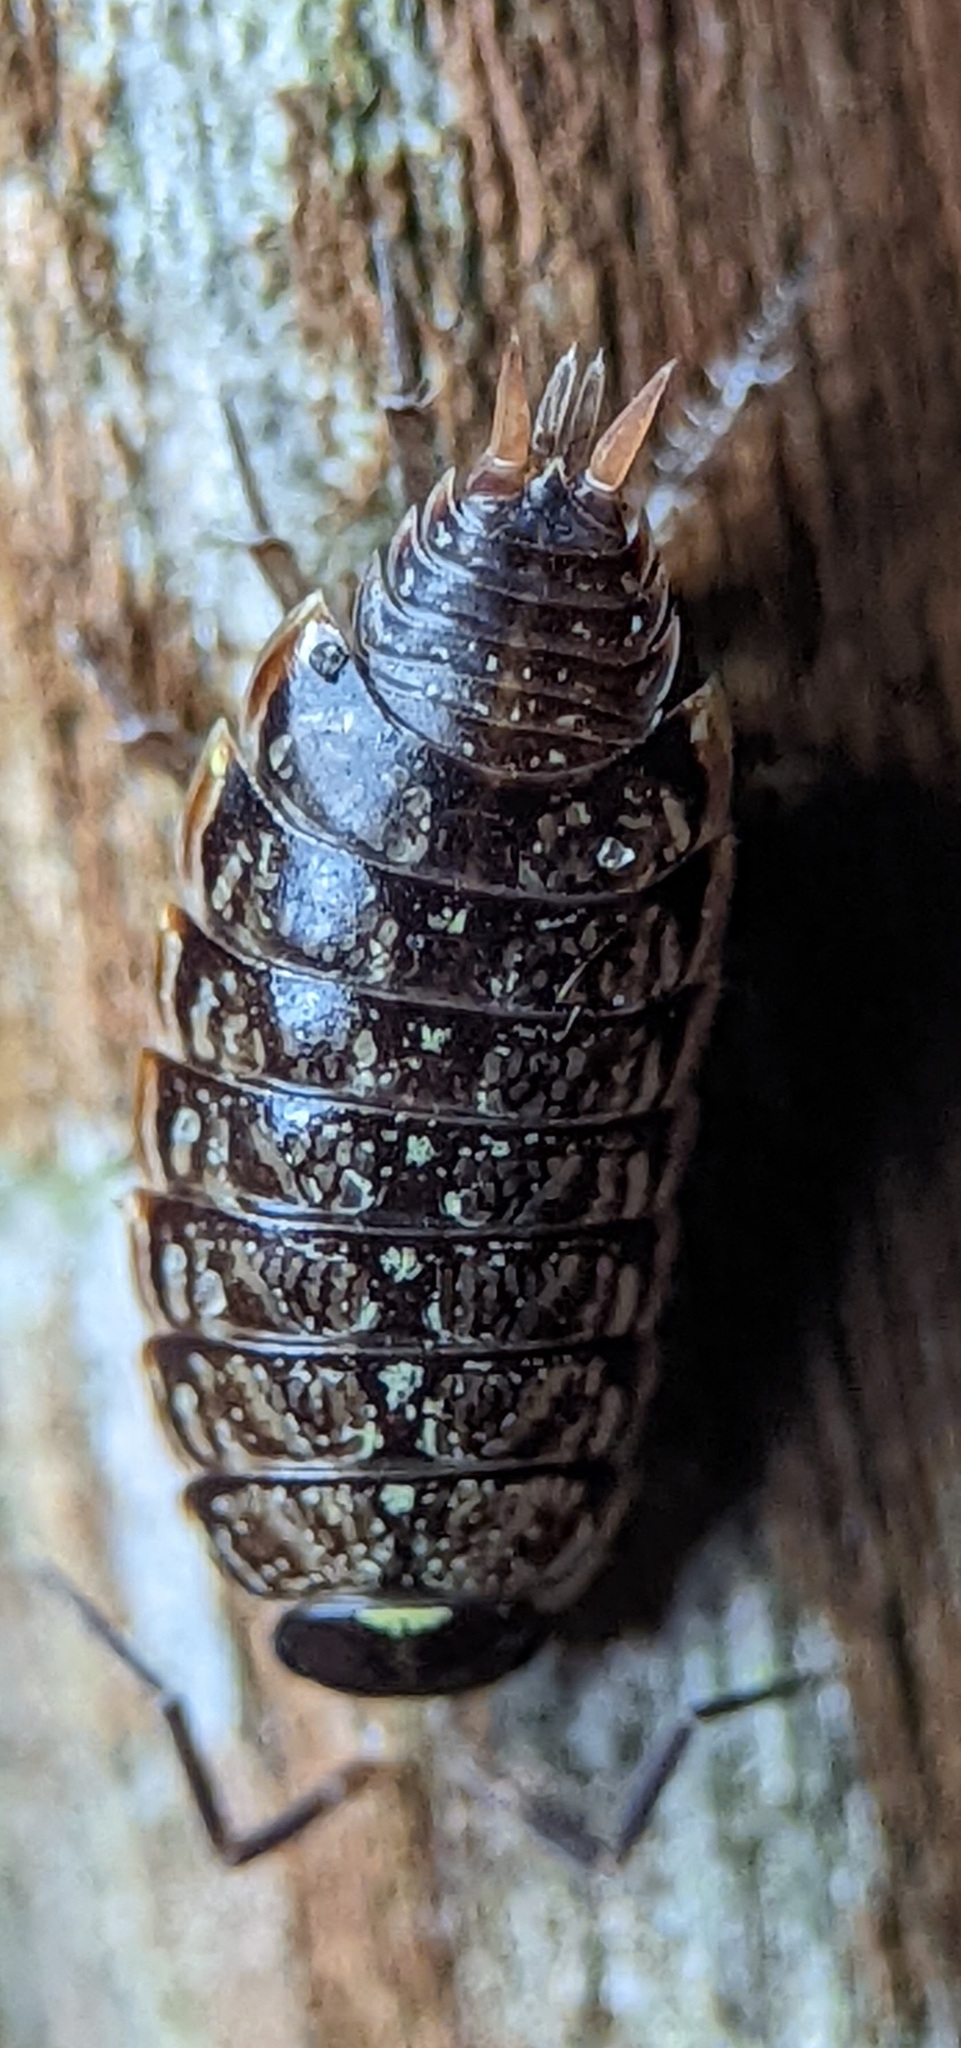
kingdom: Animalia
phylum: Arthropoda
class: Malacostraca
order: Isopoda
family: Philosciidae
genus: Philoscia
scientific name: Philoscia muscorum
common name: Common striped woodlouse
